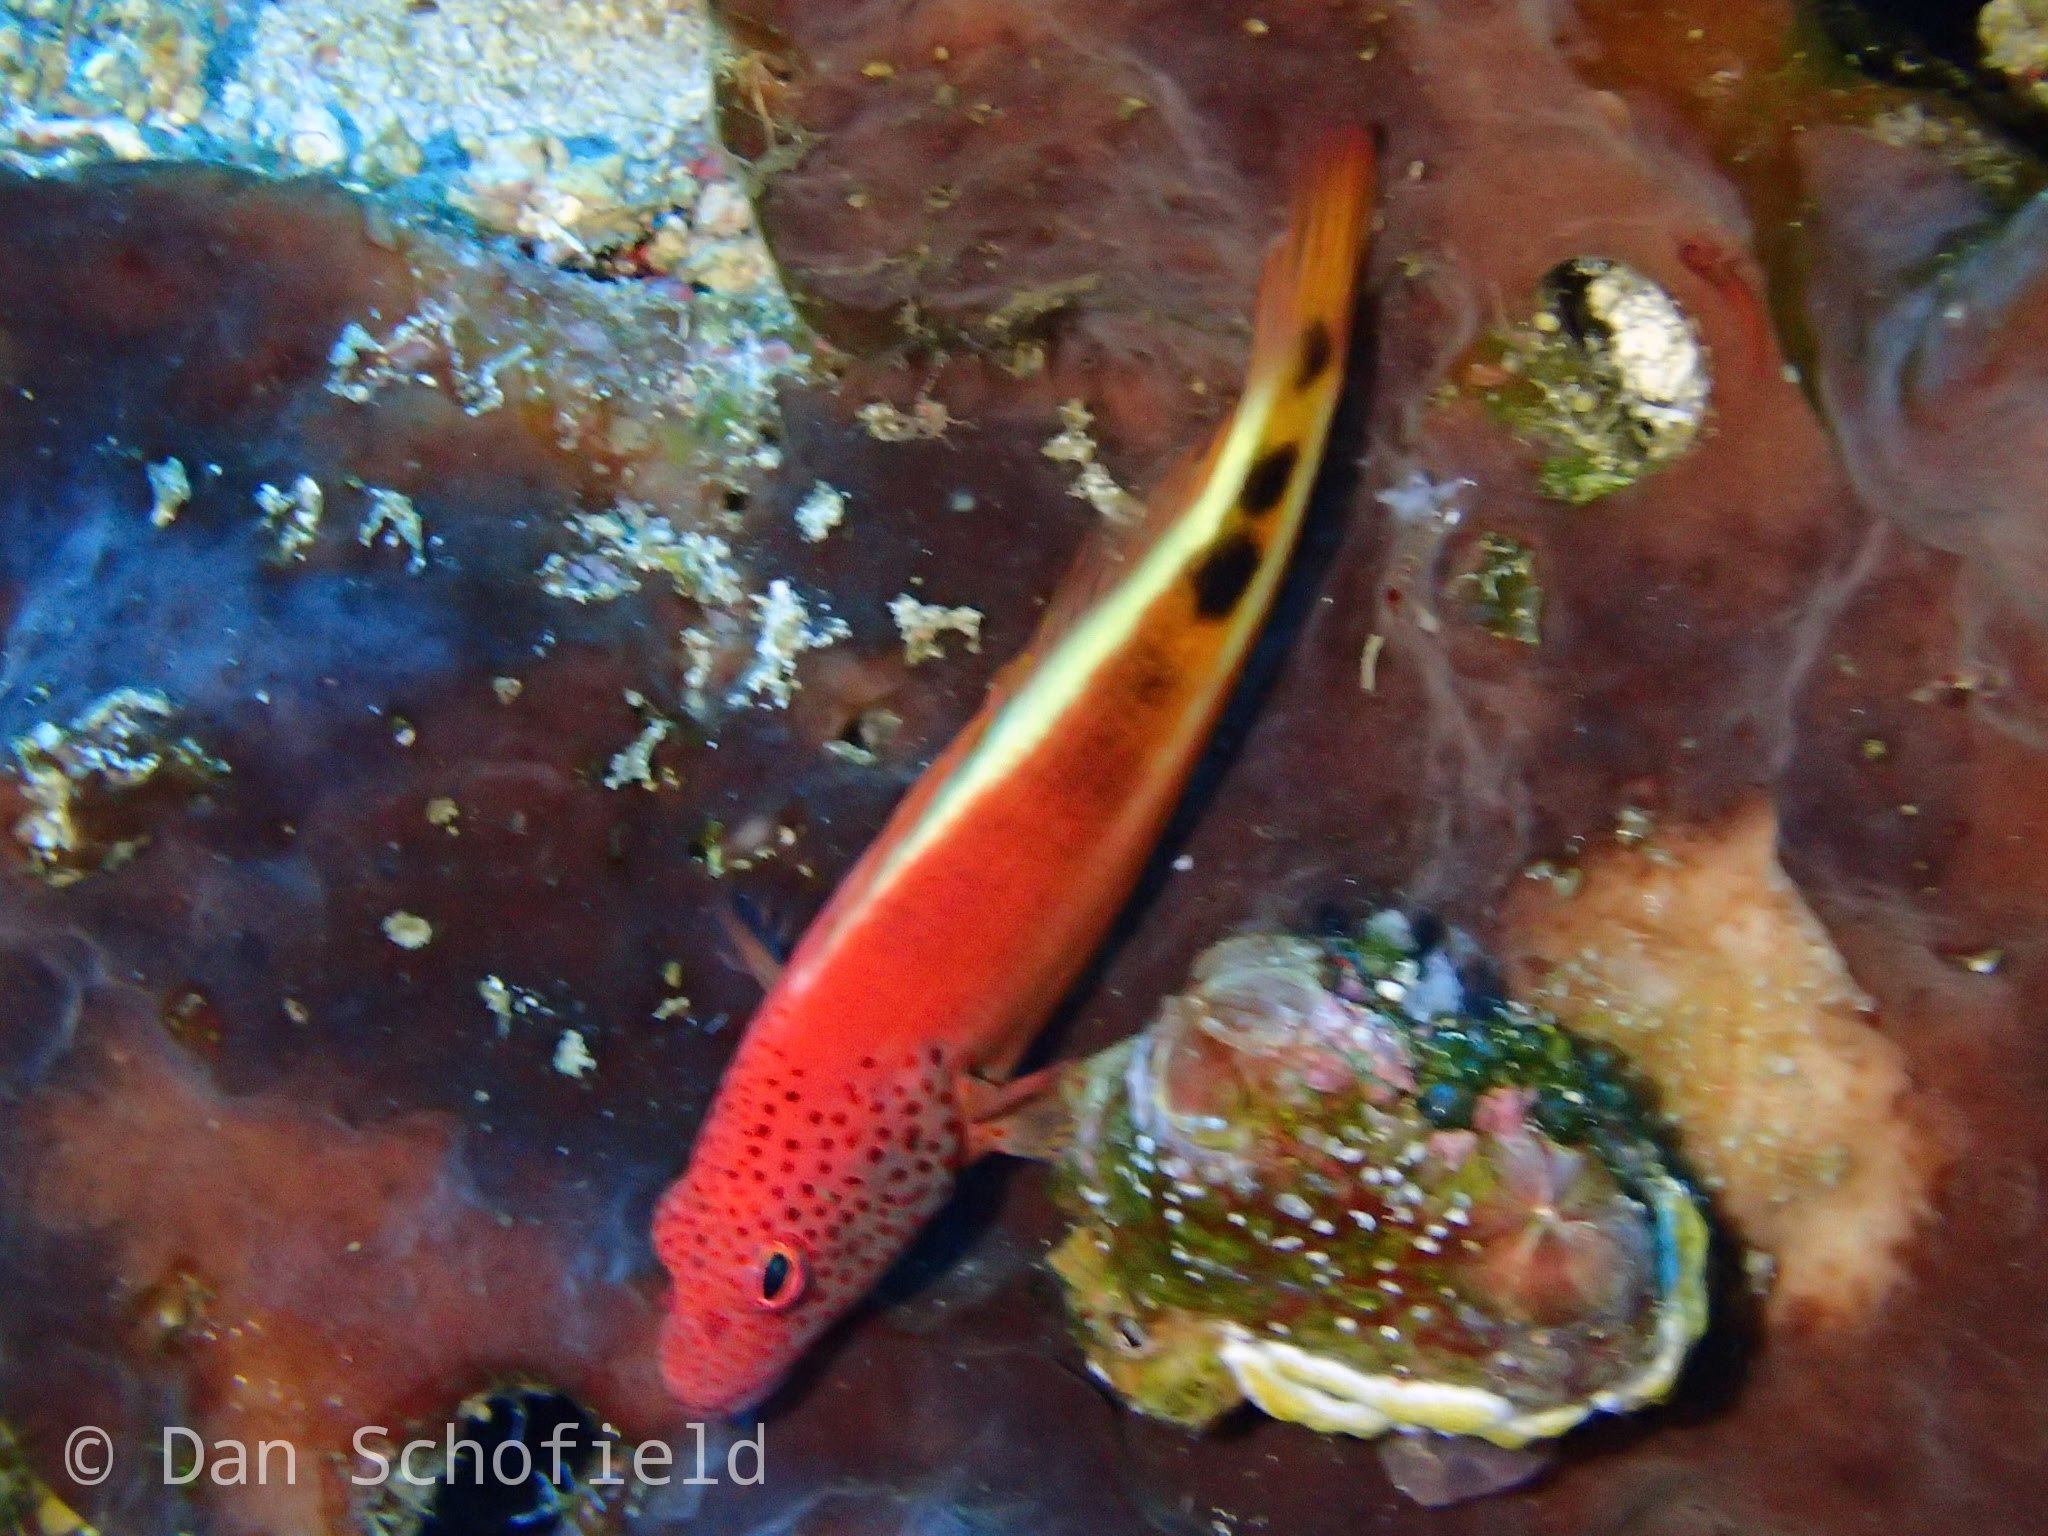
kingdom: Animalia
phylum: Chordata
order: Perciformes
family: Cirrhitidae
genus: Paracirrhites
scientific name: Paracirrhites forsteri
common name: Freckled hawkfish
